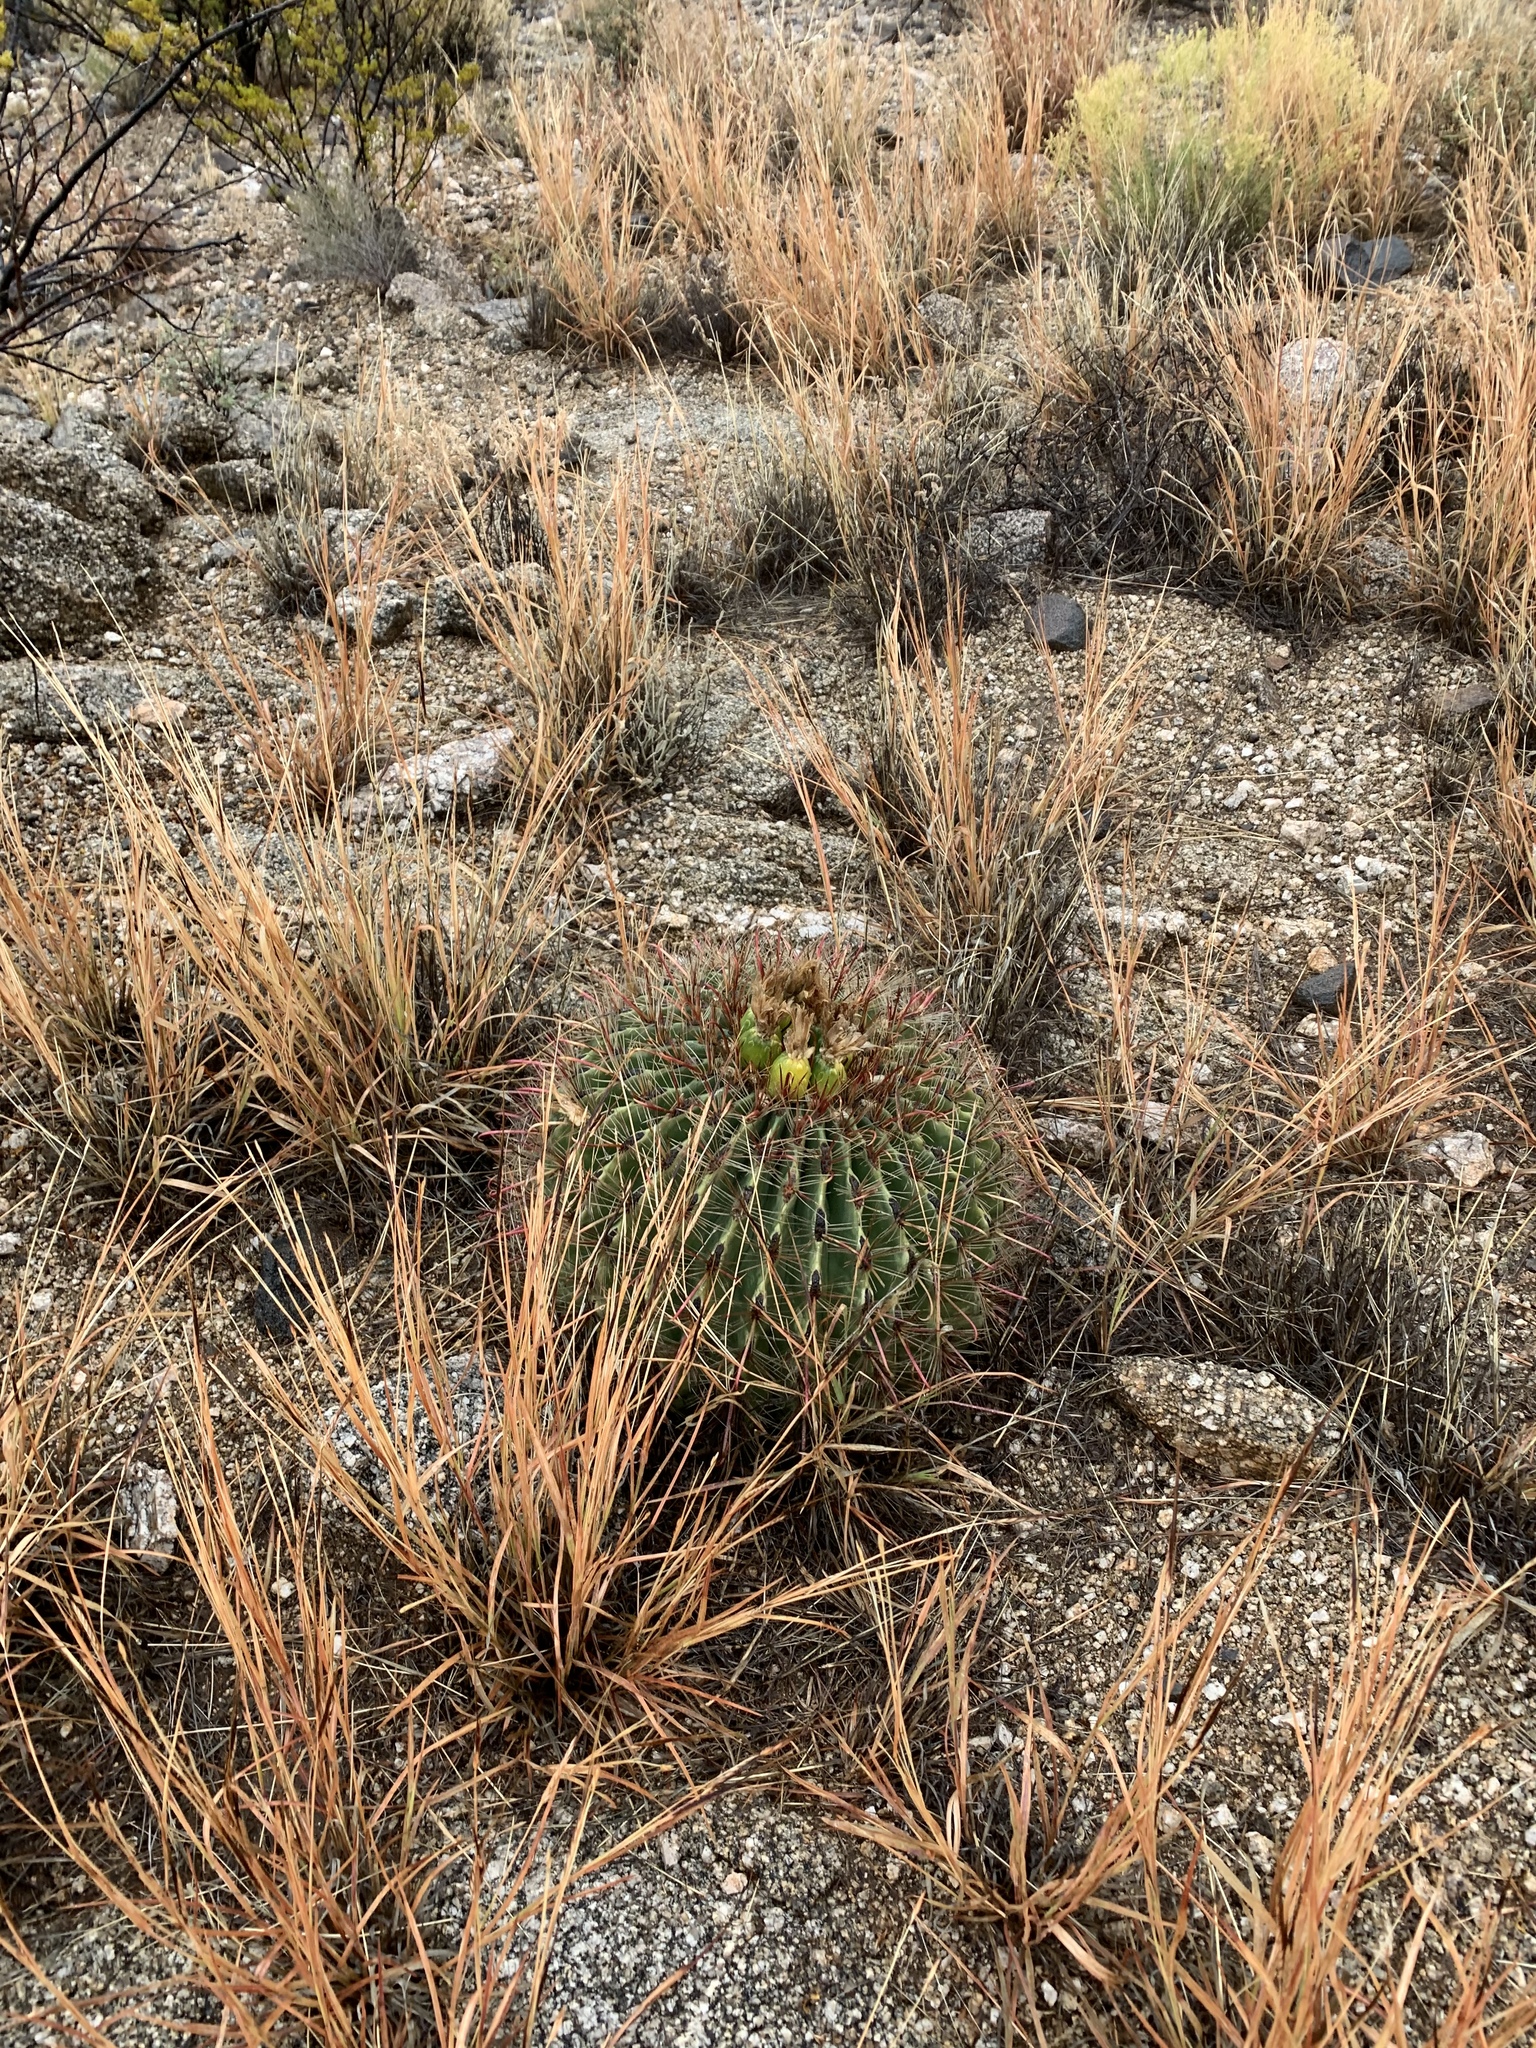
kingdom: Plantae
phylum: Tracheophyta
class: Magnoliopsida
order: Caryophyllales
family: Cactaceae
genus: Ferocactus
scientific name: Ferocactus wislizeni
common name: Candy barrel cactus
